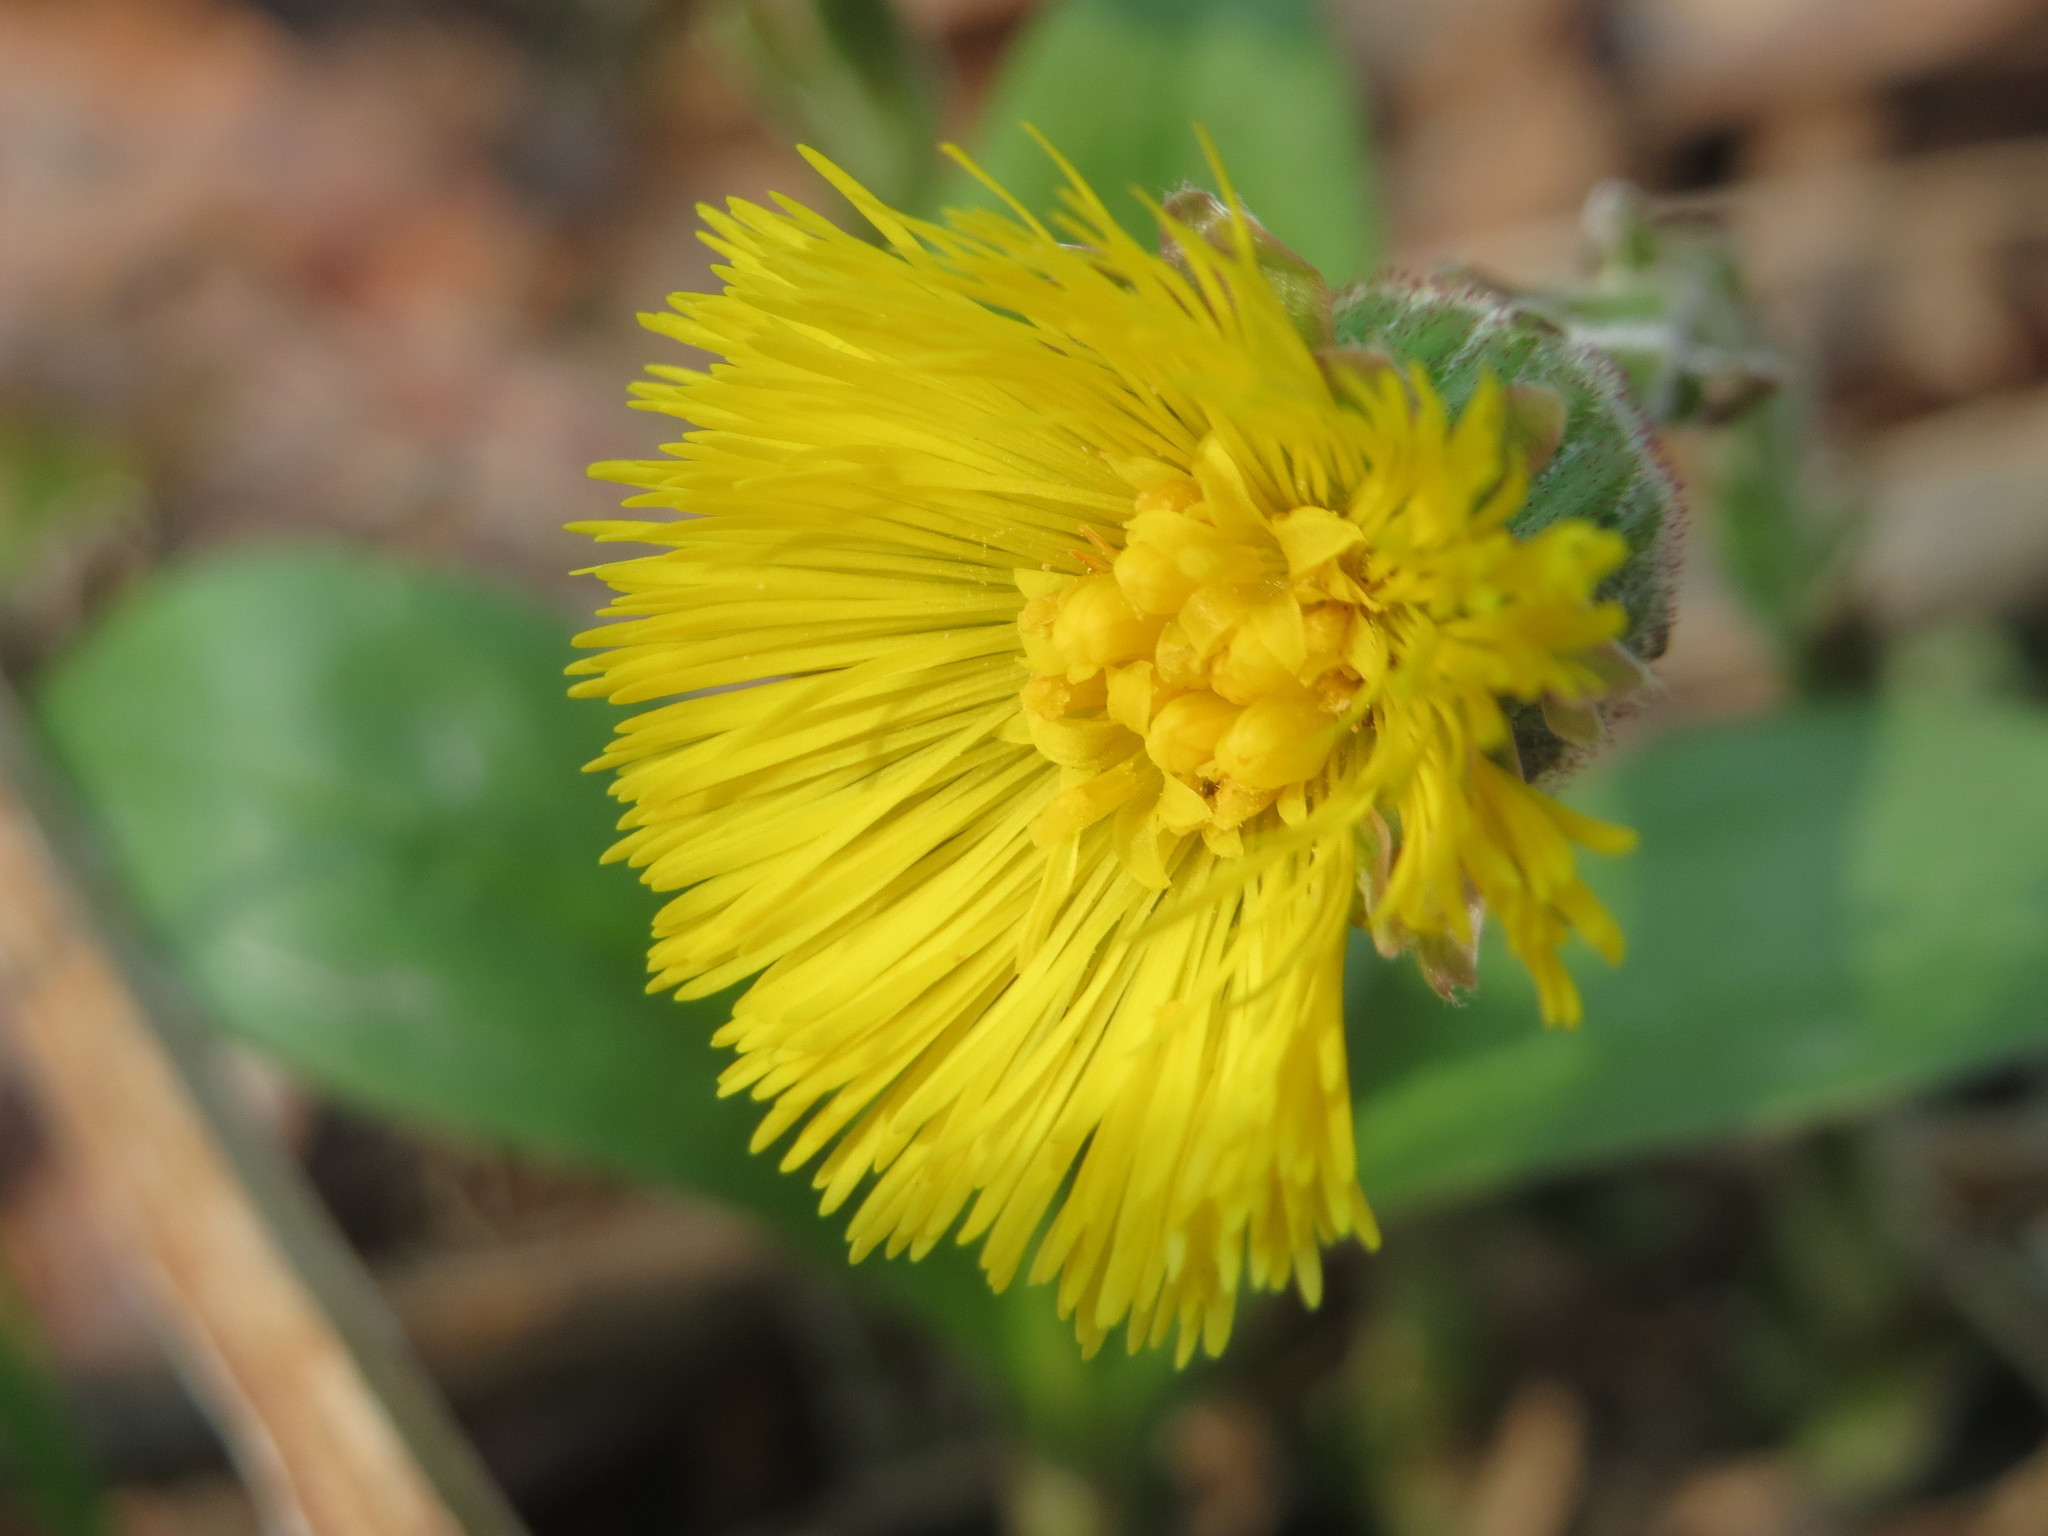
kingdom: Plantae
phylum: Tracheophyta
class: Magnoliopsida
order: Asterales
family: Asteraceae
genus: Tussilago
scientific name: Tussilago farfara
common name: Coltsfoot
